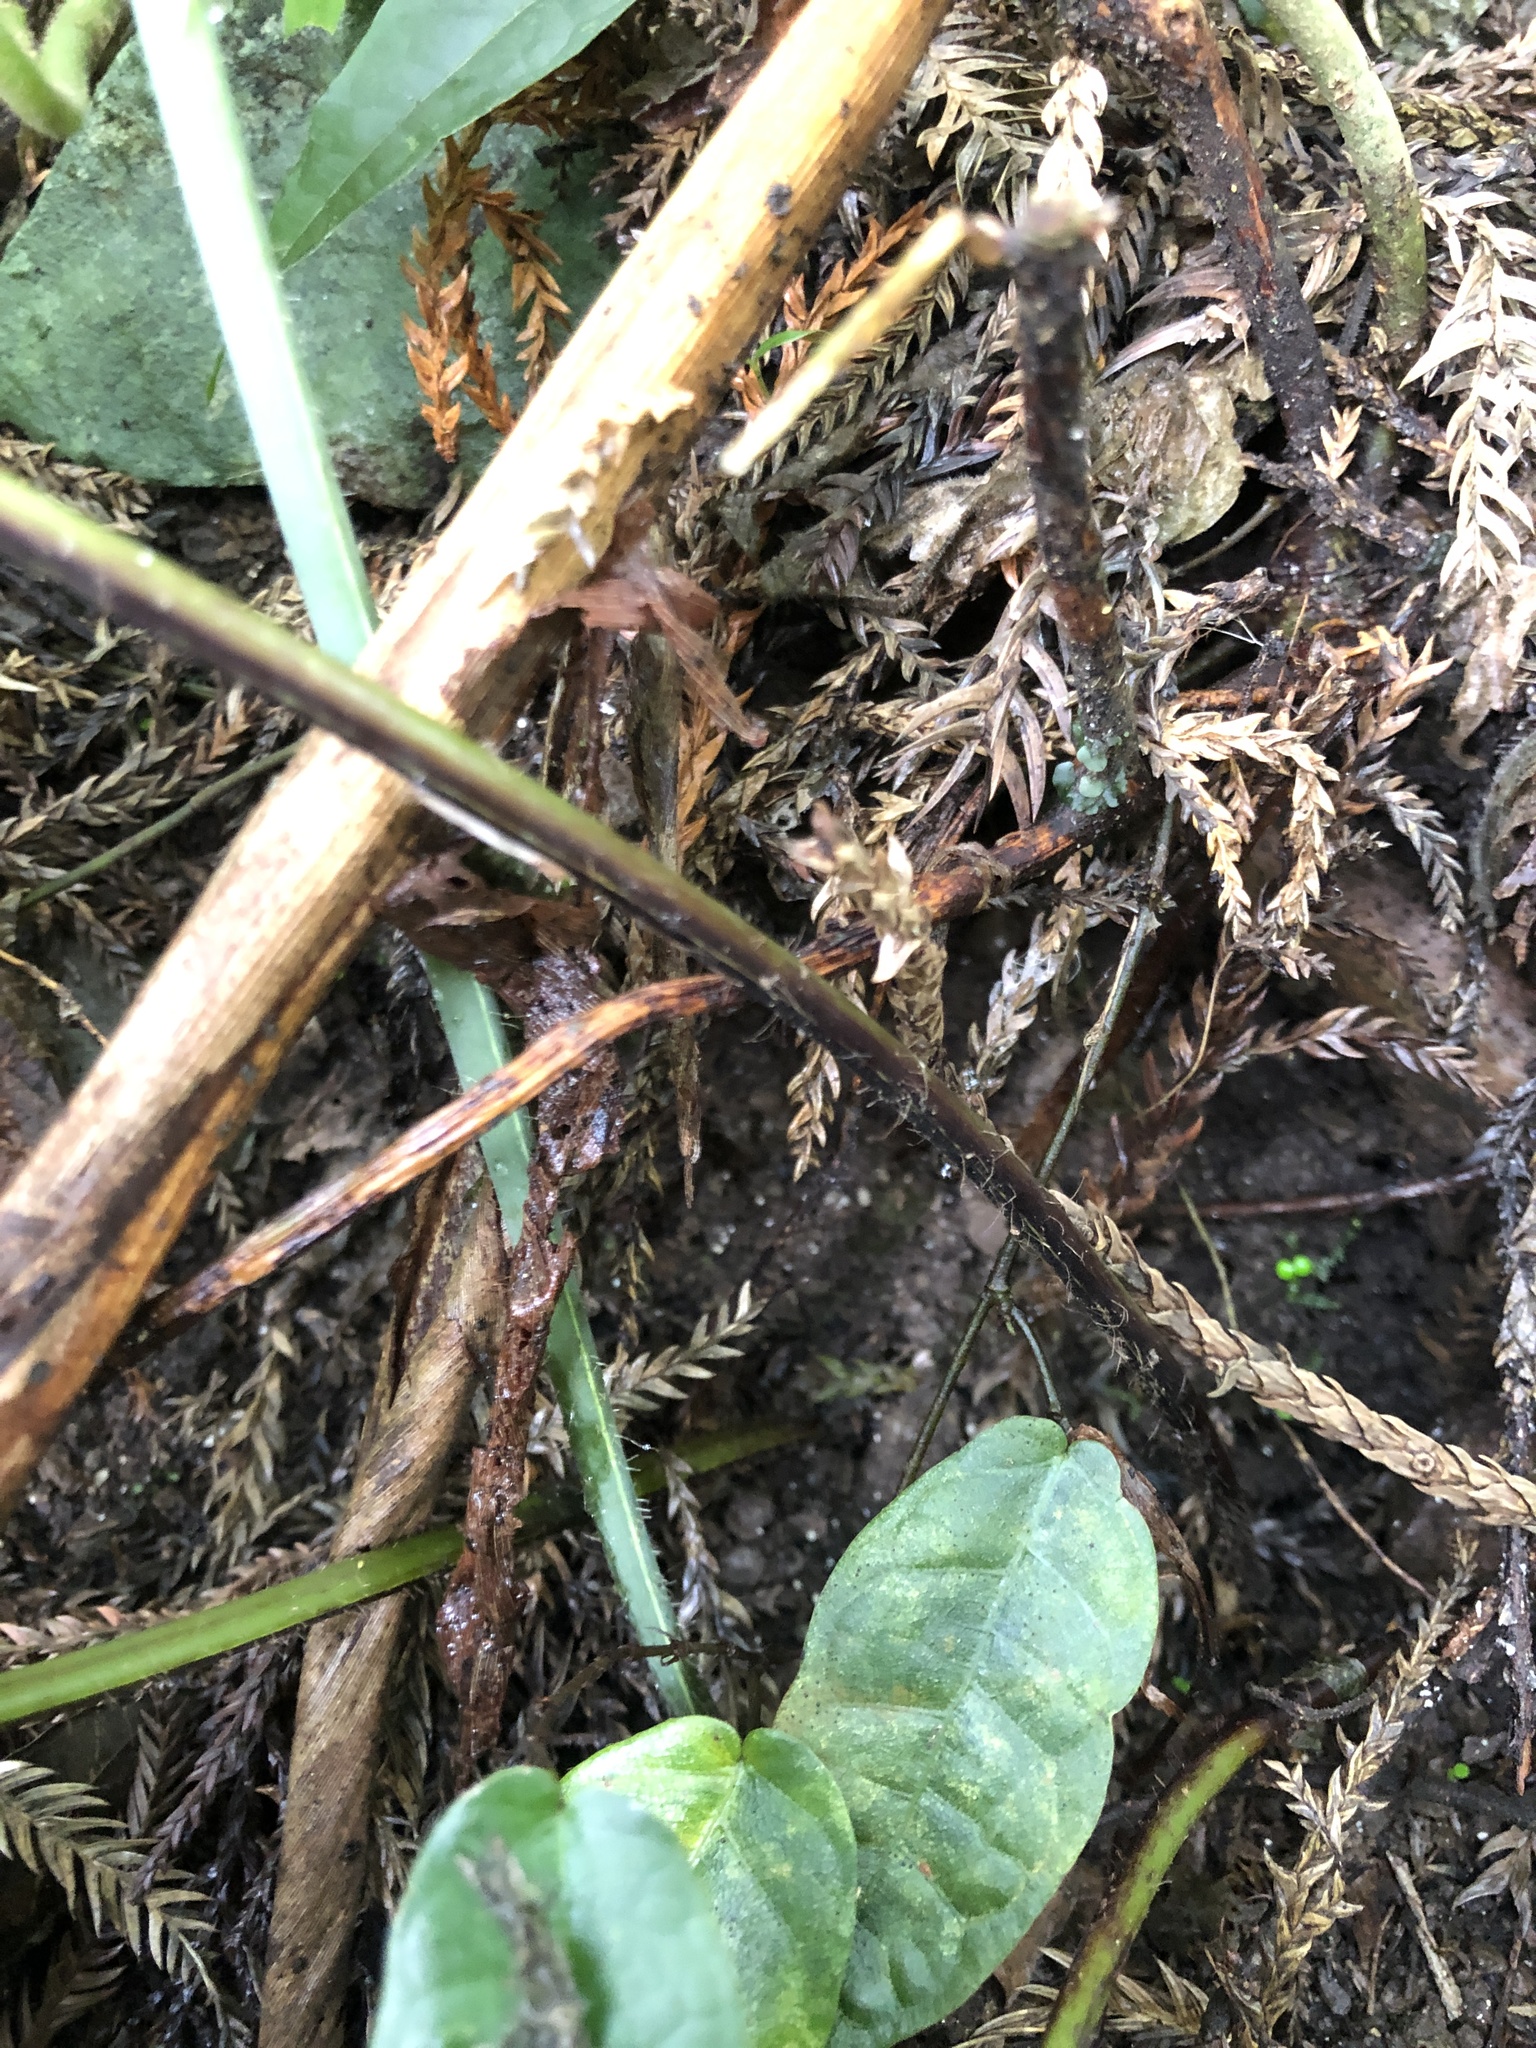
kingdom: Plantae
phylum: Tracheophyta
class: Polypodiopsida
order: Polypodiales
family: Dennstaedtiaceae
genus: Microlepia
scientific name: Microlepia marginata
